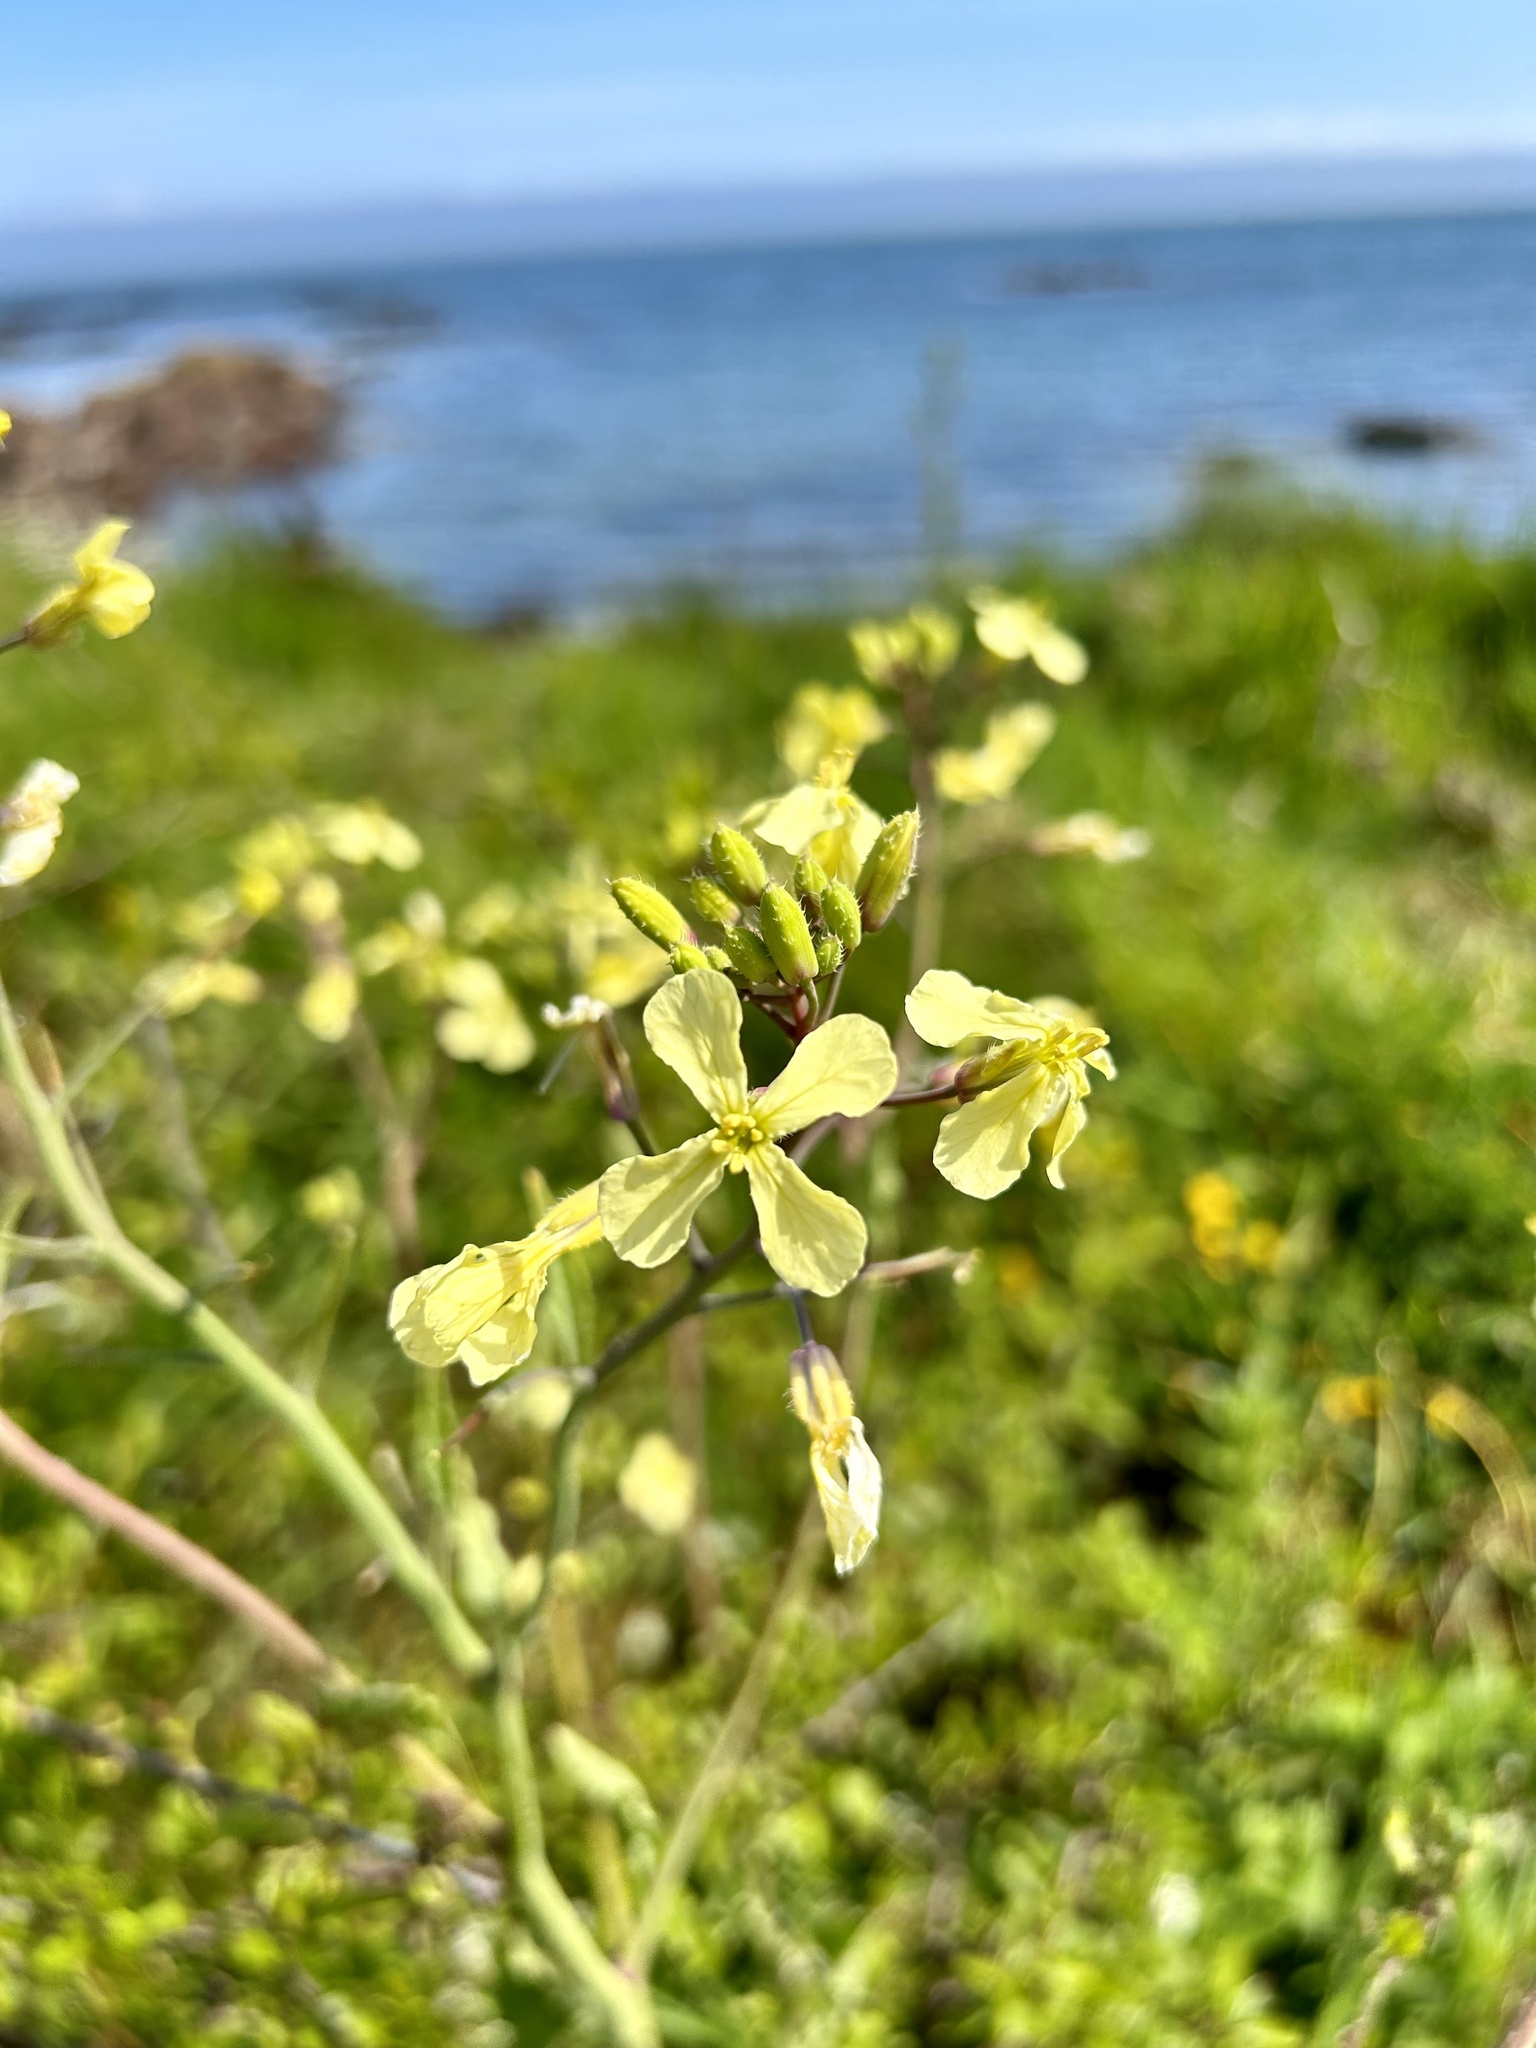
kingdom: Plantae
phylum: Tracheophyta
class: Magnoliopsida
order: Brassicales
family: Brassicaceae
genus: Raphanus
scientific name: Raphanus raphanistrum
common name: Wild radish
